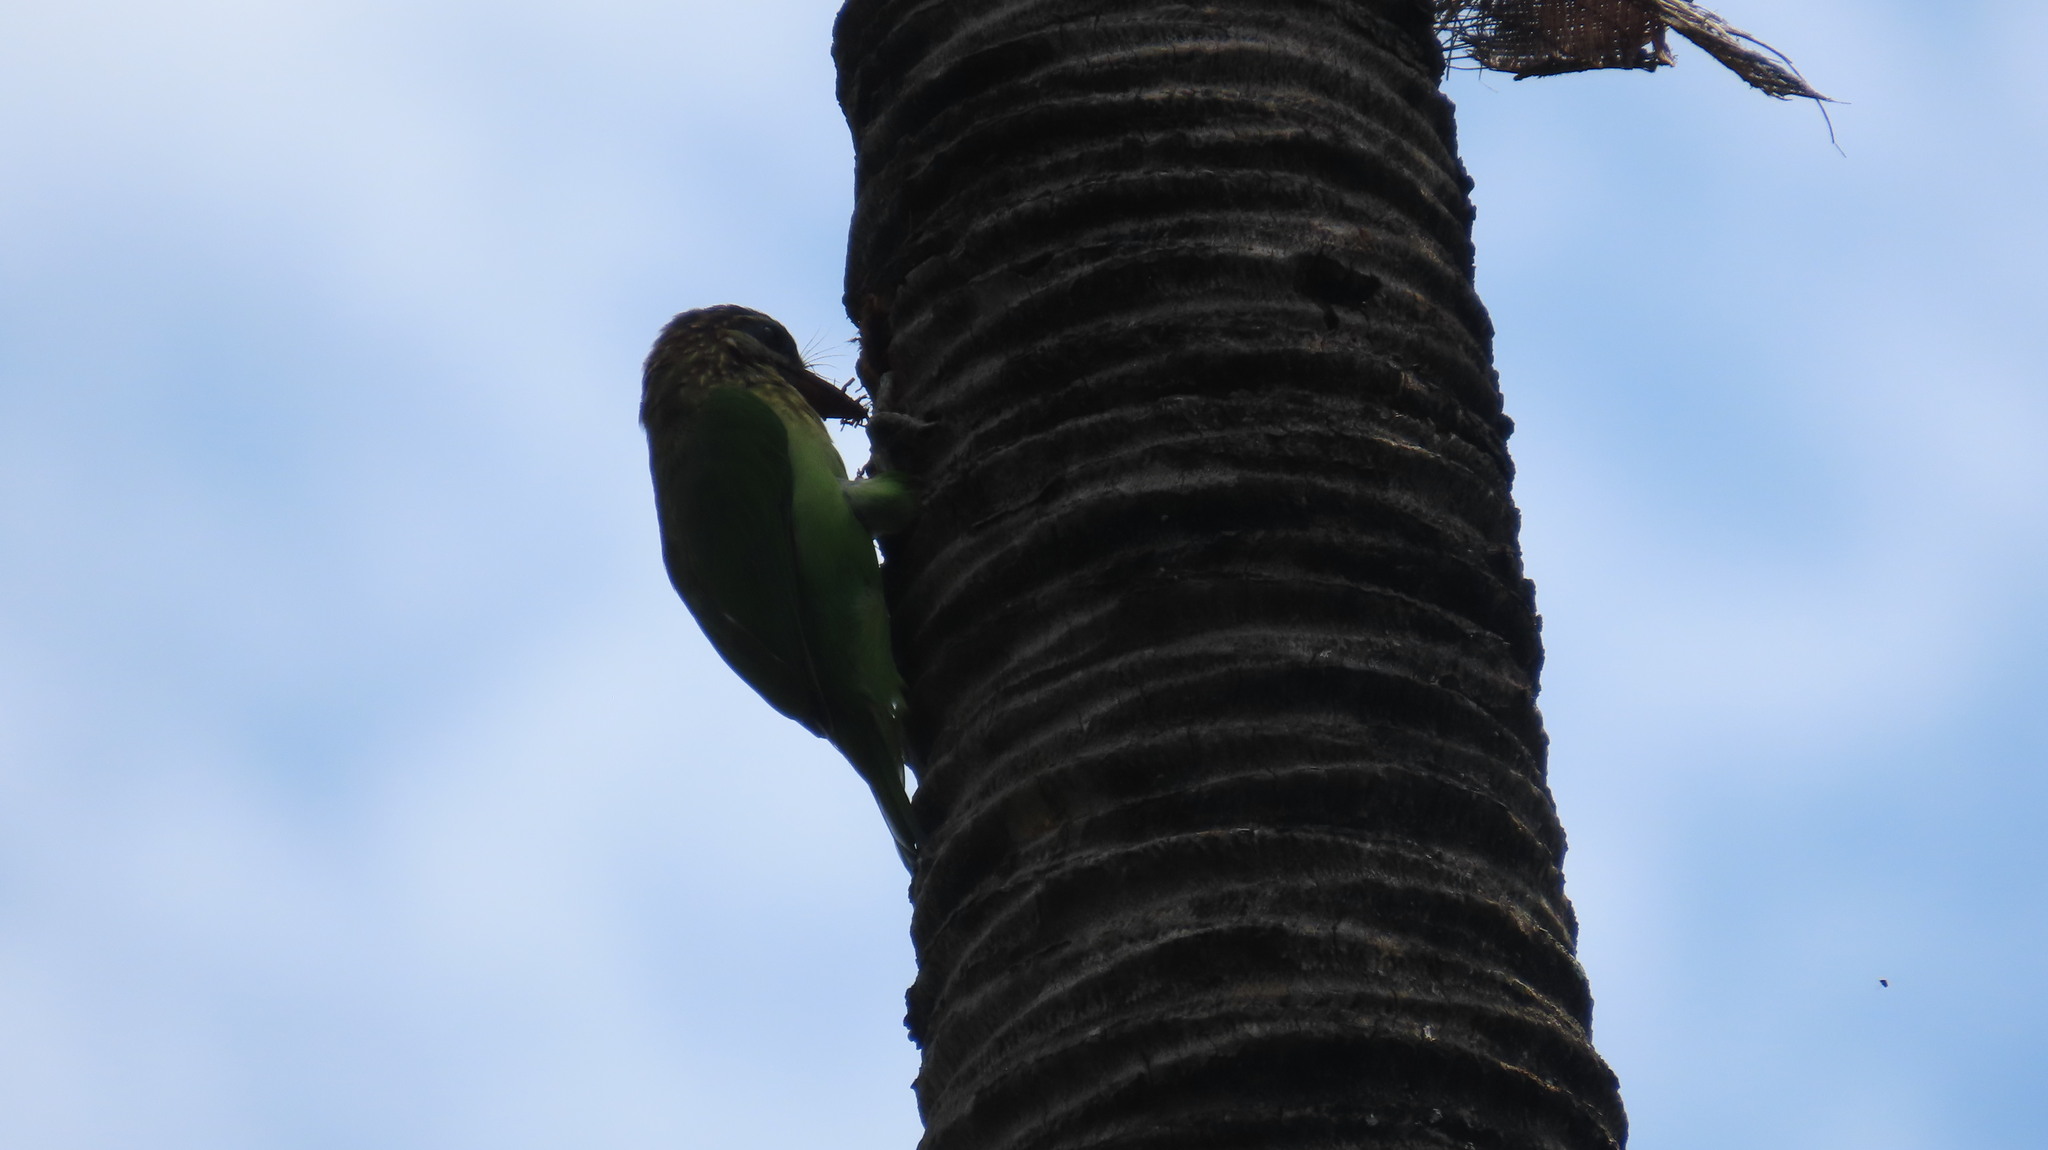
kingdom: Animalia
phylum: Chordata
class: Aves
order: Piciformes
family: Megalaimidae
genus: Psilopogon
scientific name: Psilopogon viridis
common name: White-cheeked barbet
